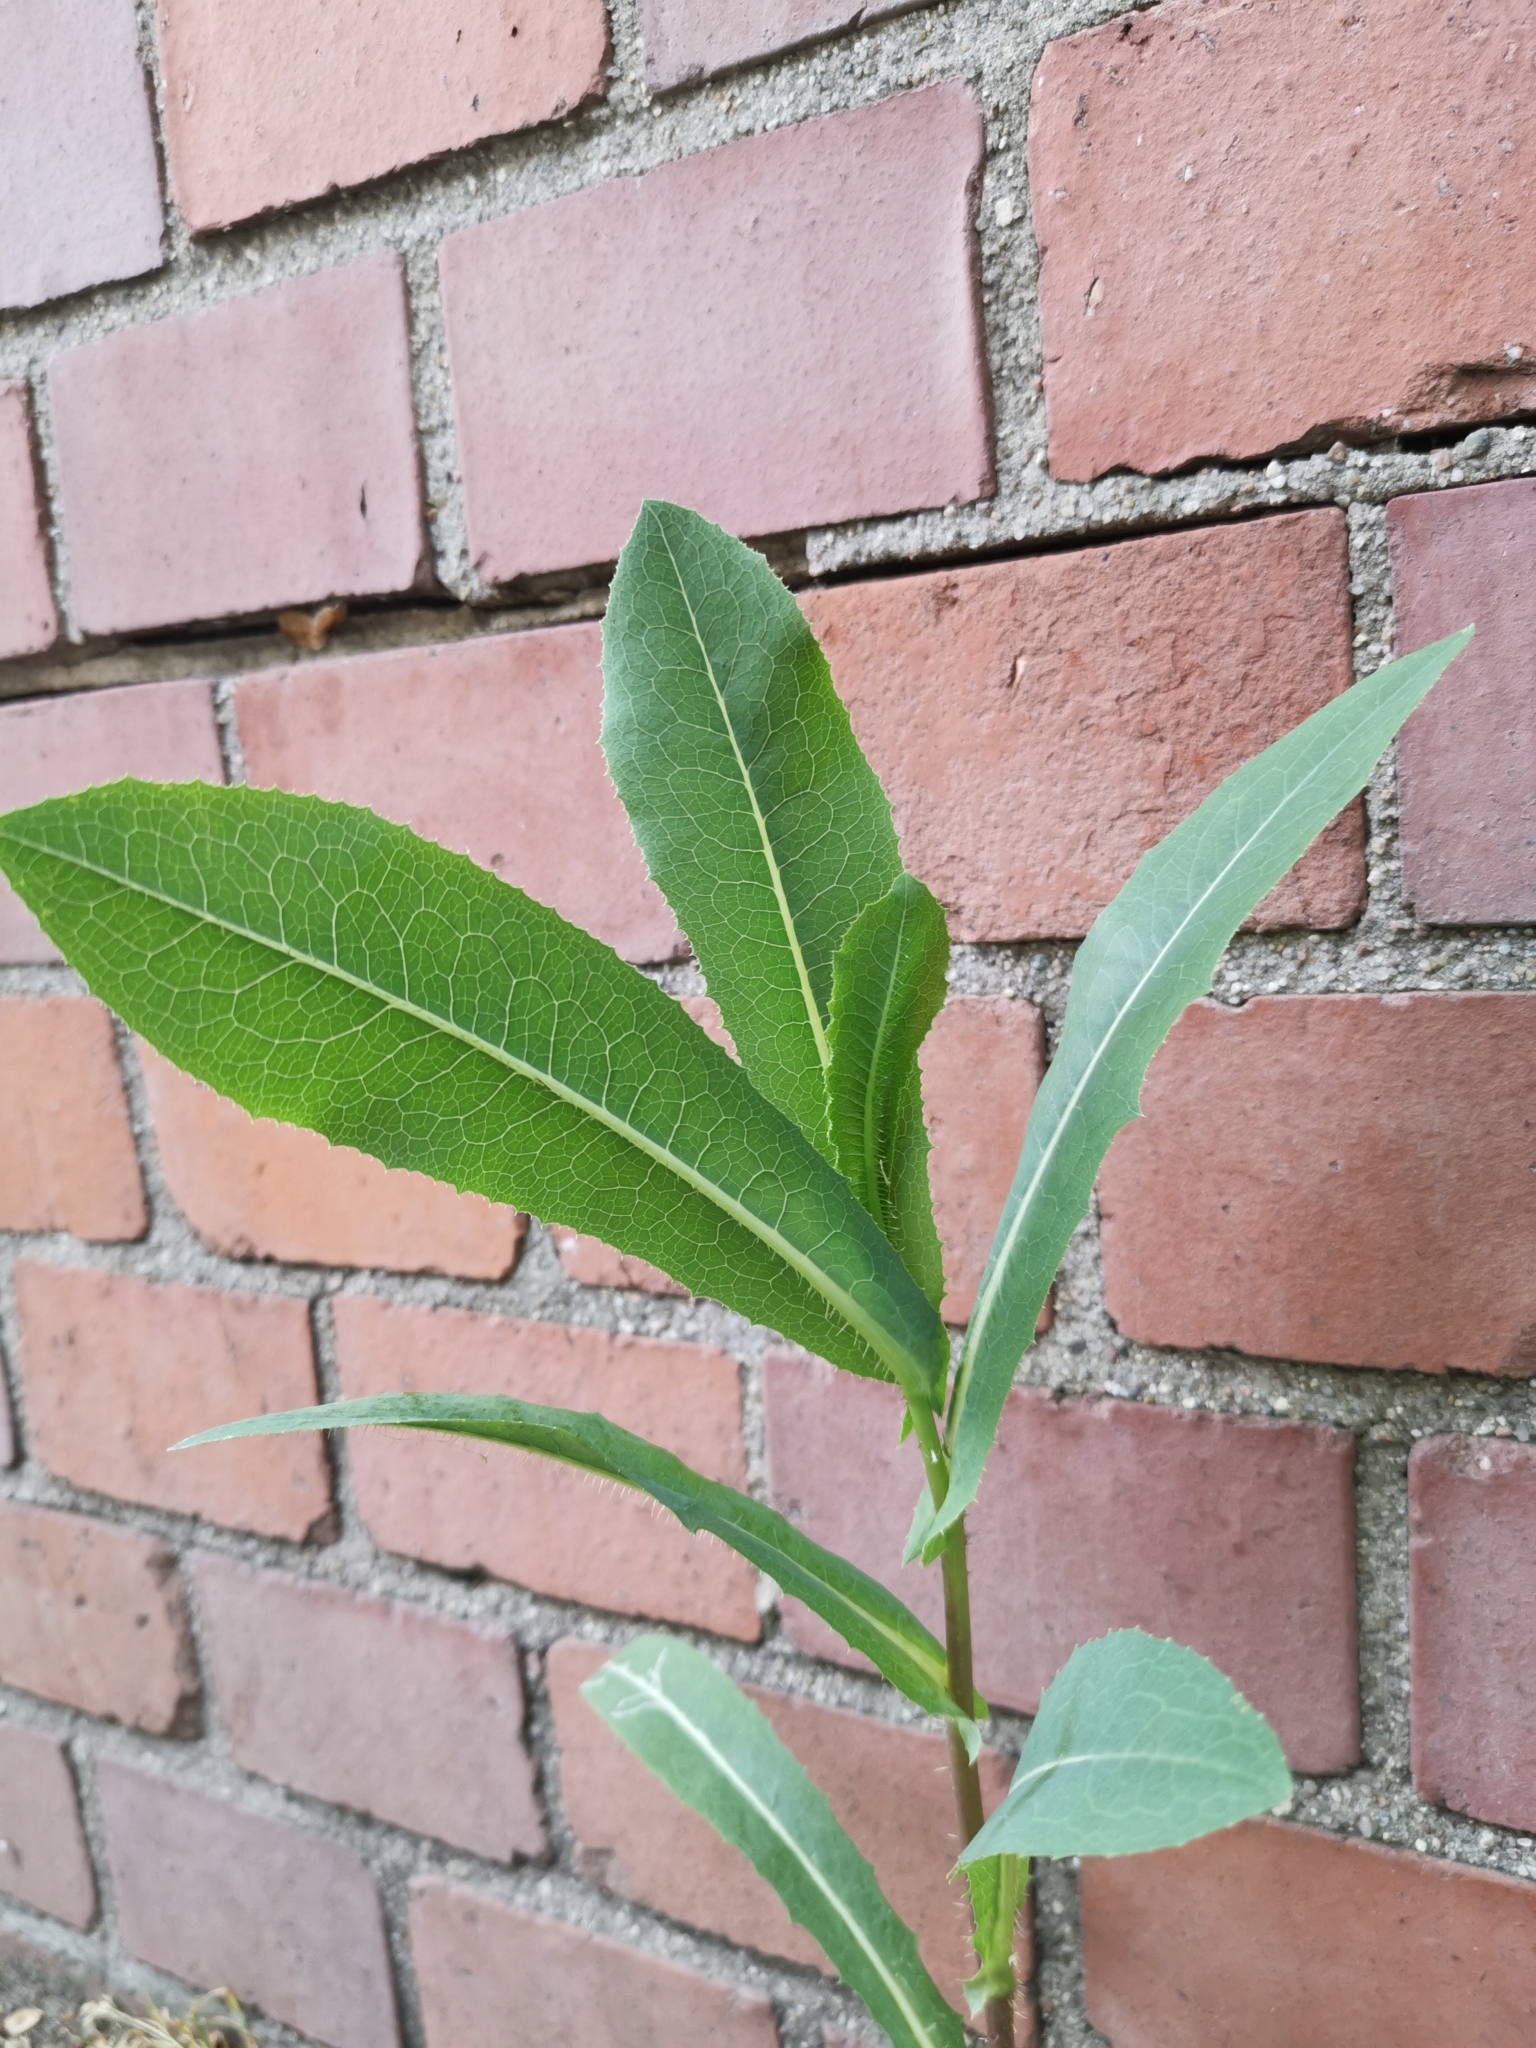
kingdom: Plantae
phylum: Tracheophyta
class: Magnoliopsida
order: Asterales
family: Asteraceae
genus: Lactuca
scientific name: Lactuca serriola
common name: Prickly lettuce
